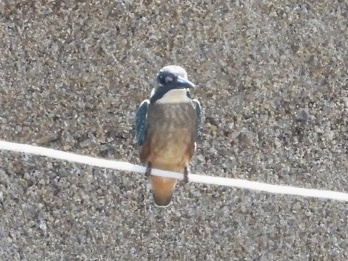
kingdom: Animalia
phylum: Chordata
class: Aves
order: Coraciiformes
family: Alcedinidae
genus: Alcedo
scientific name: Alcedo atthis
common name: Common kingfisher
